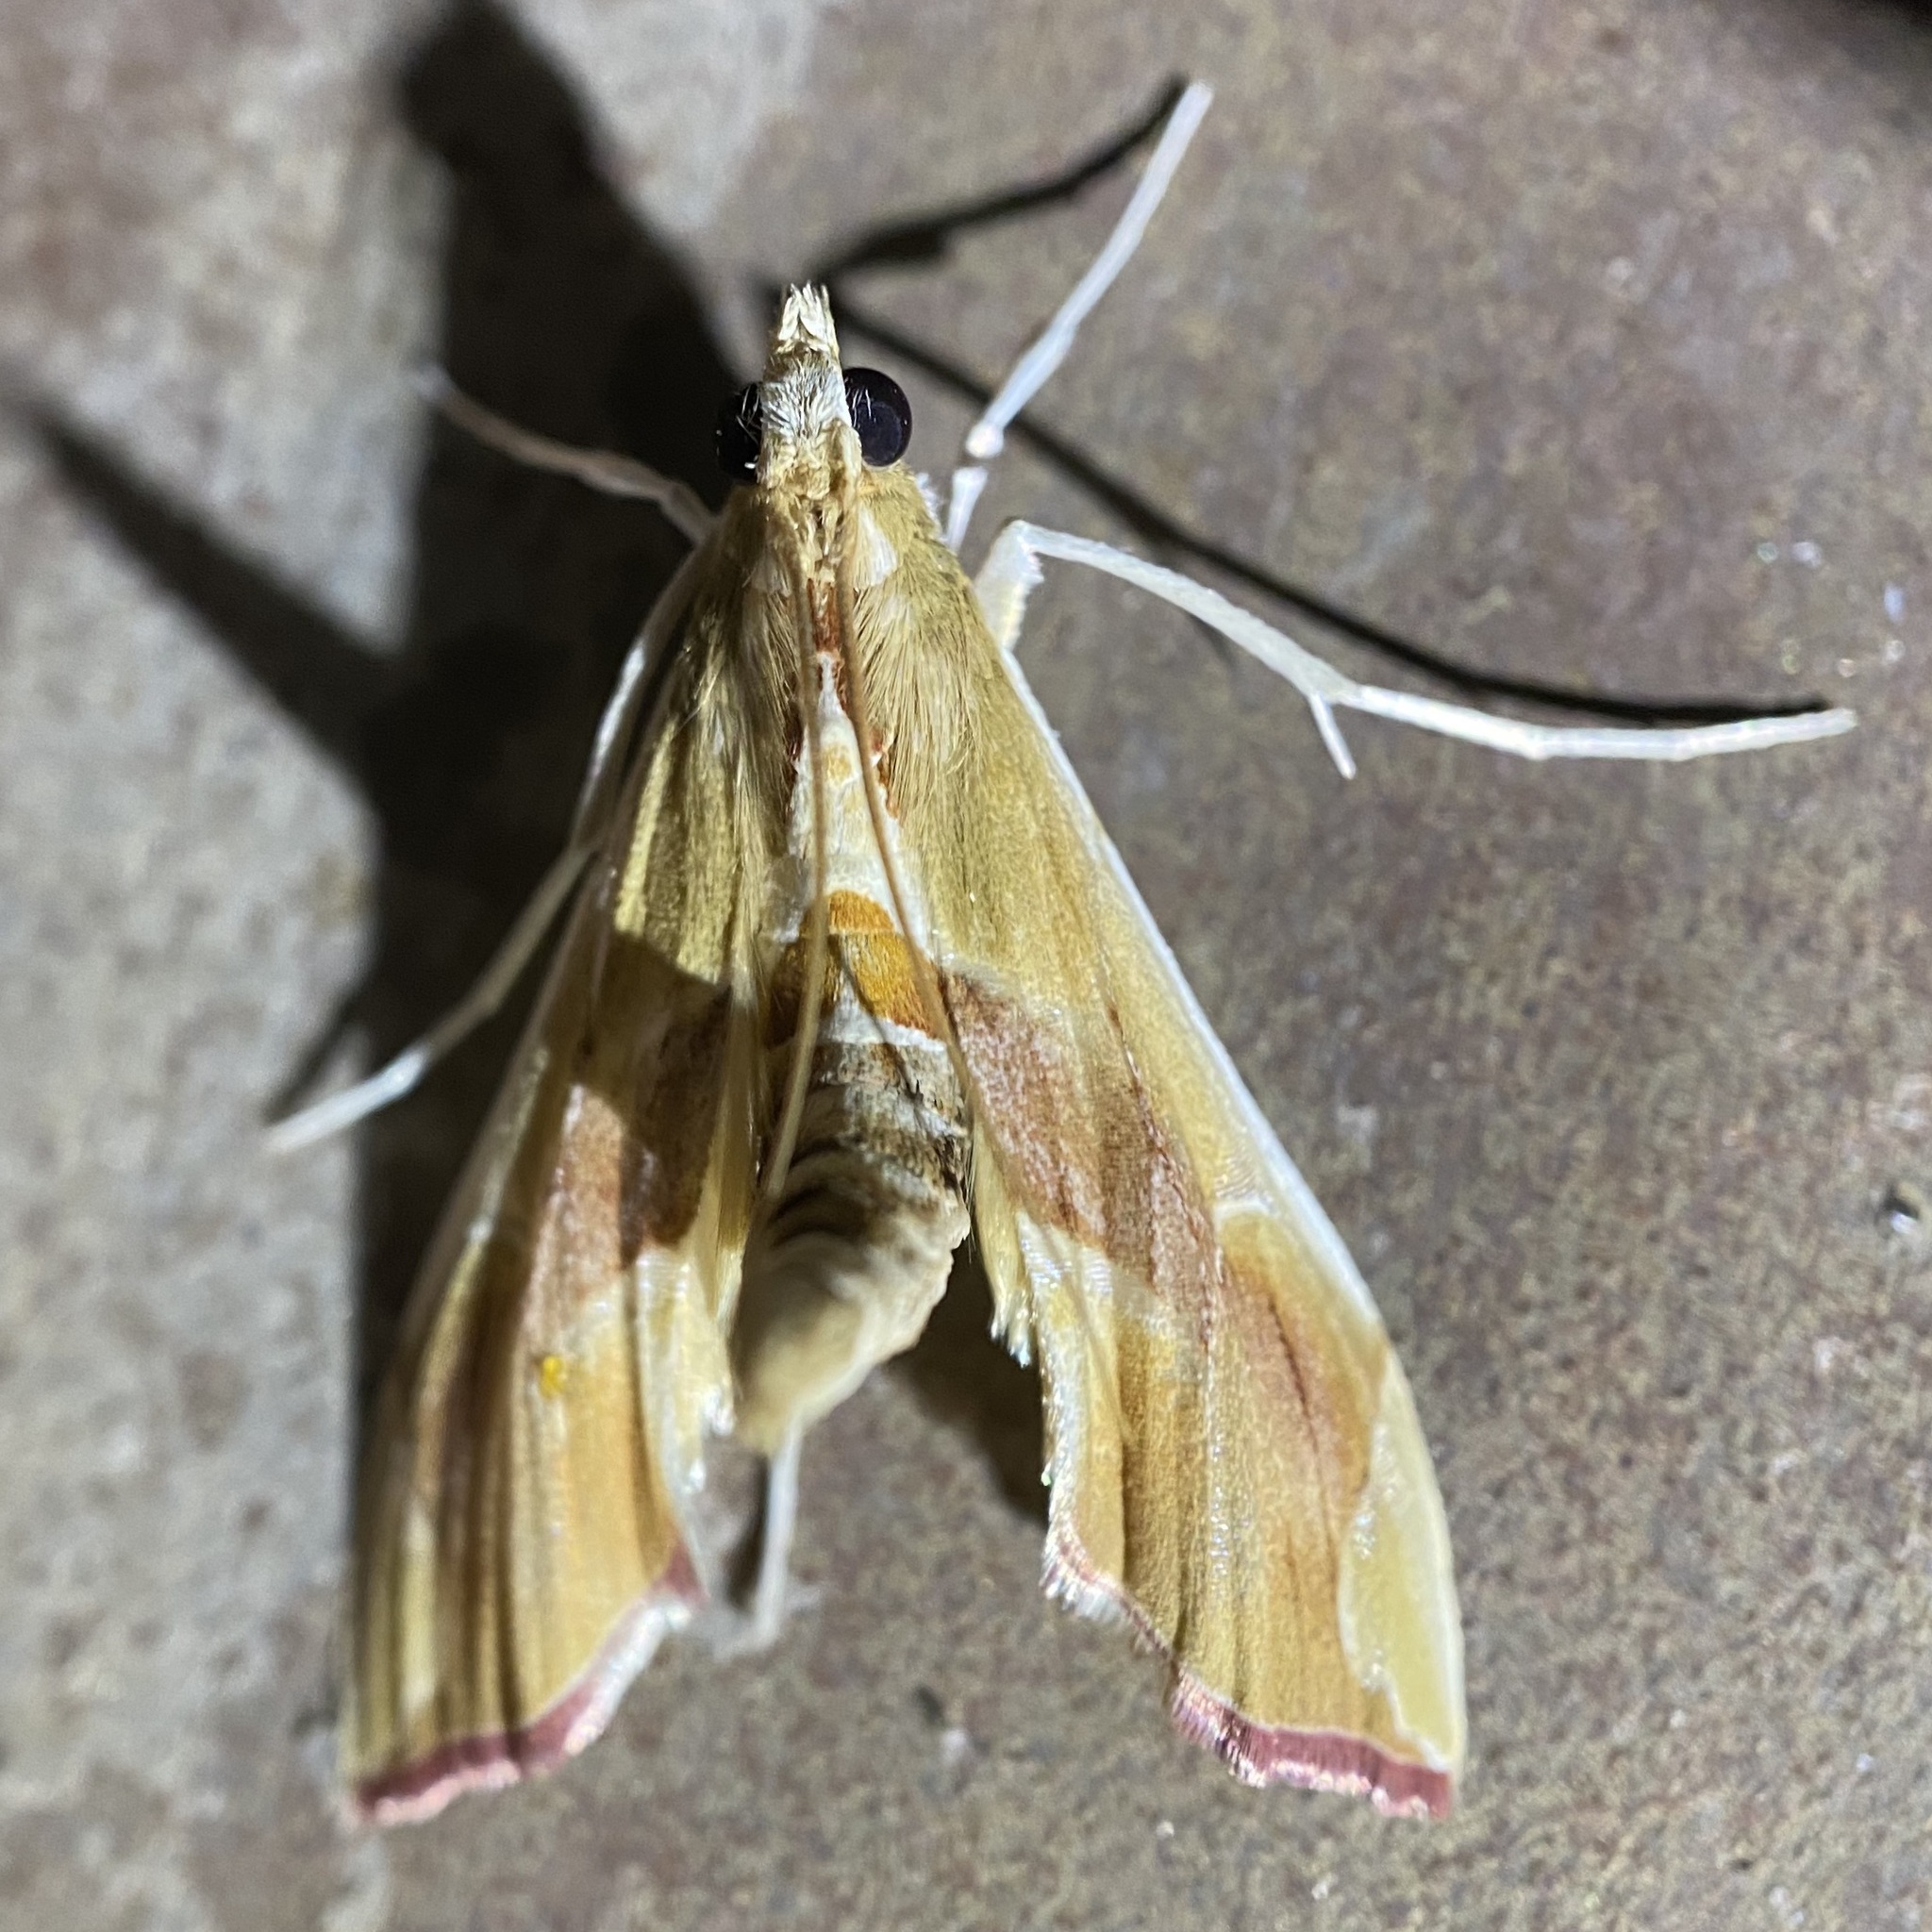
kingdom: Animalia
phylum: Arthropoda
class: Insecta
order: Lepidoptera
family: Crambidae
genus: Agathodes
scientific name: Agathodes monstralis
